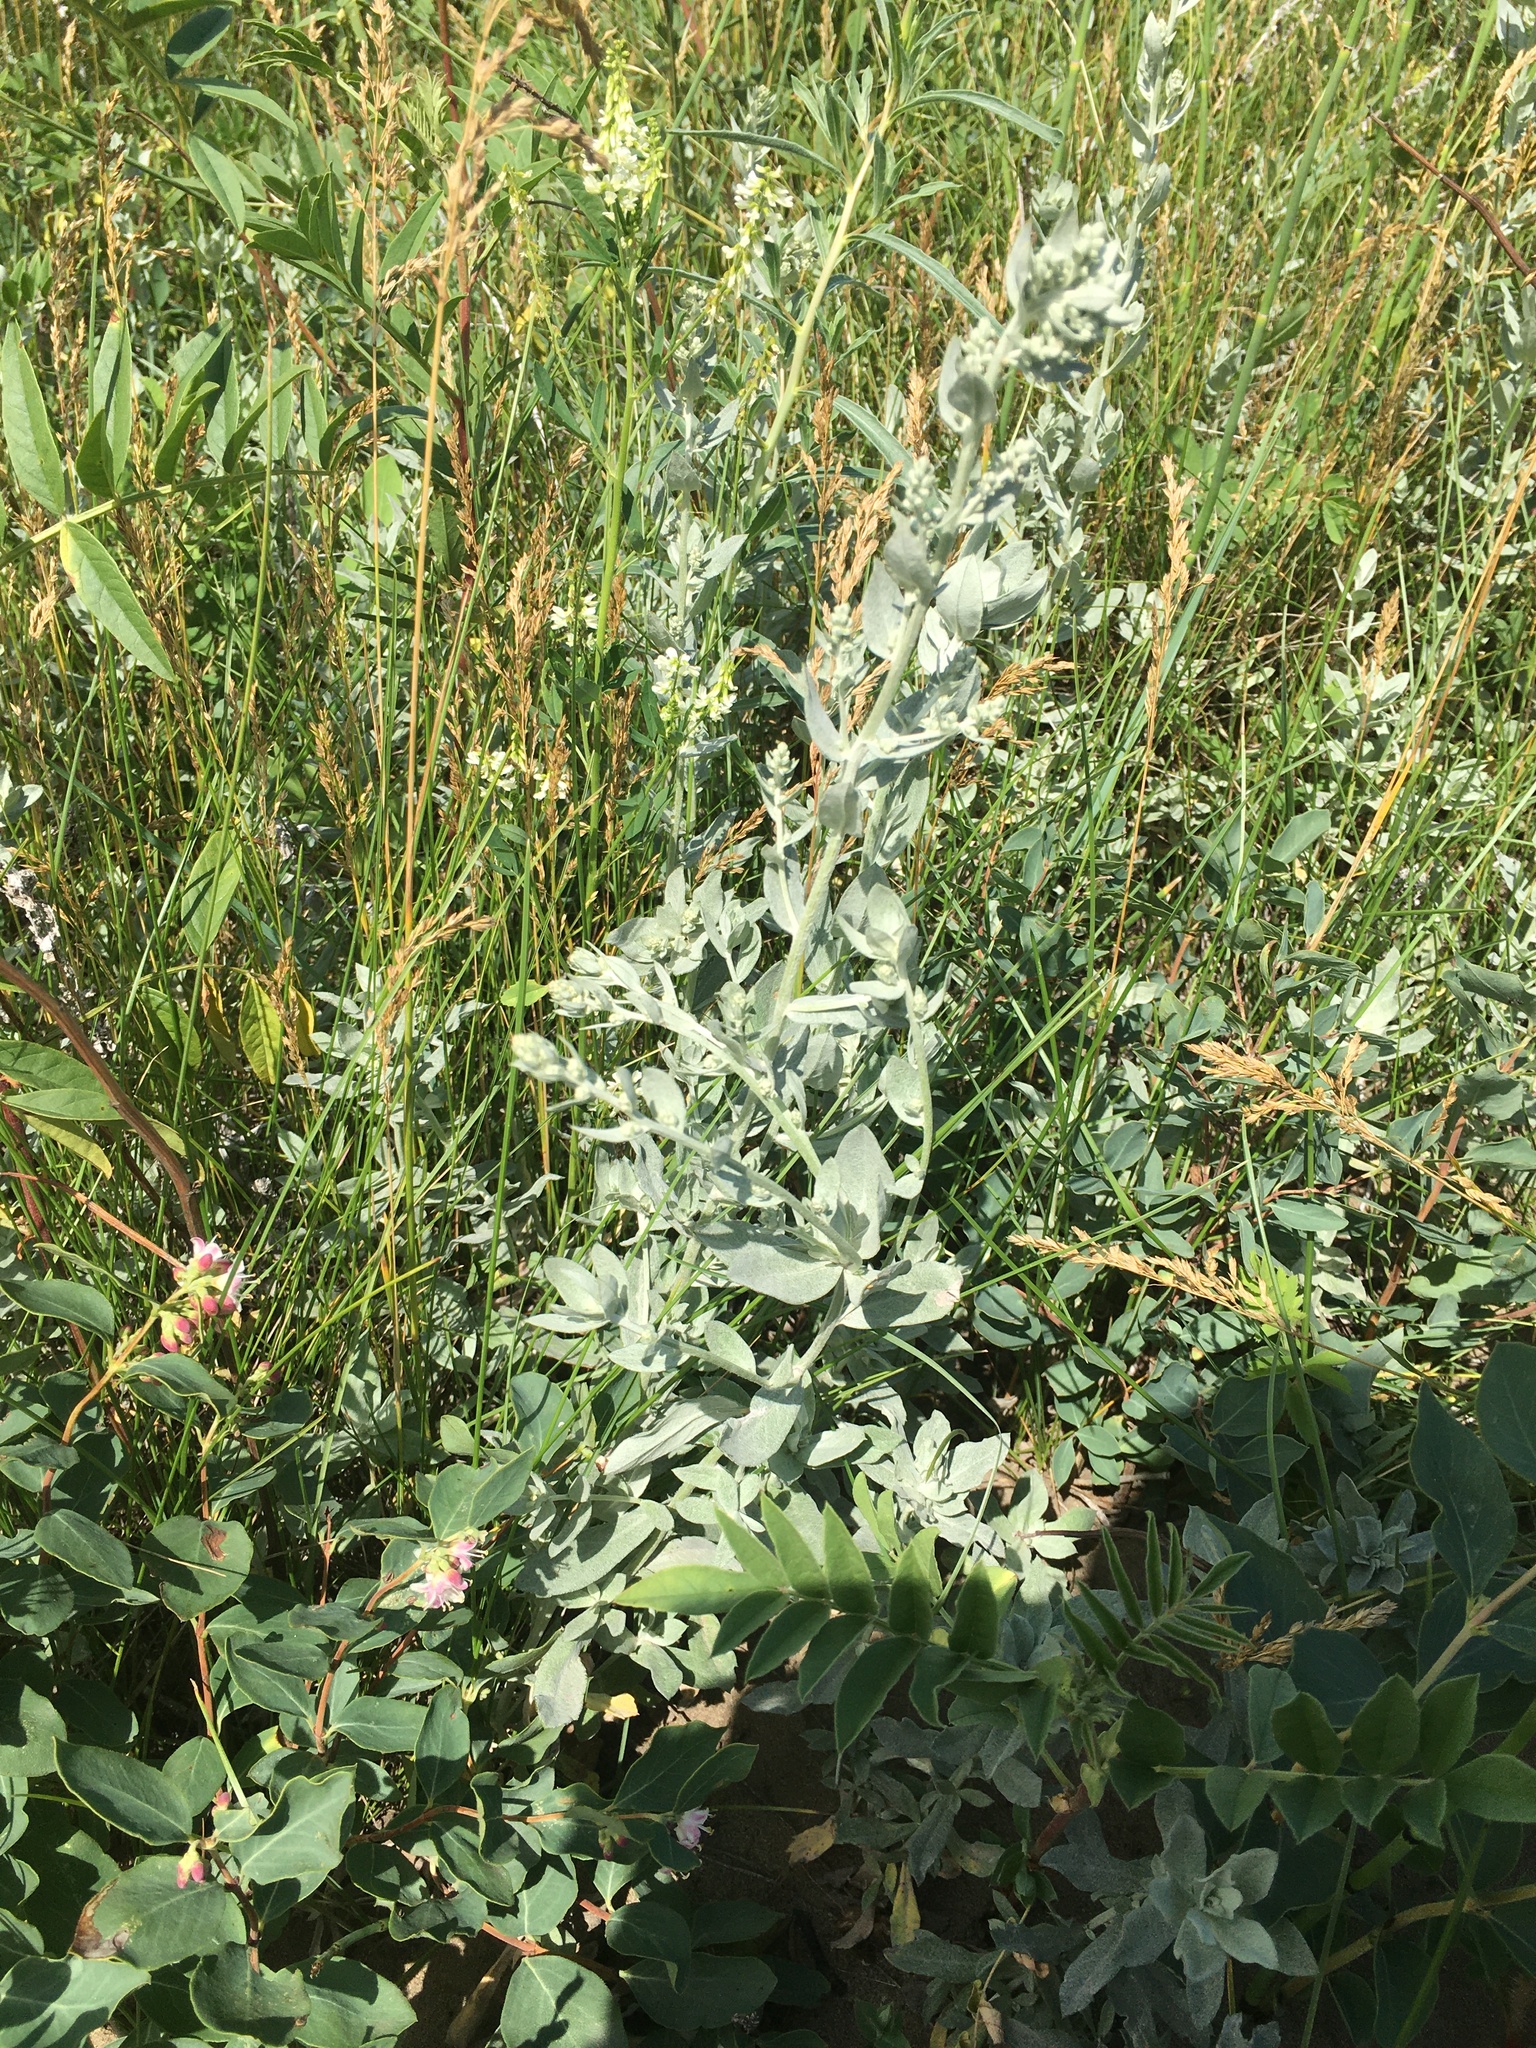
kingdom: Plantae
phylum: Tracheophyta
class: Magnoliopsida
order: Asterales
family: Asteraceae
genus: Artemisia
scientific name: Artemisia ludoviciana
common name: Western mugwort
